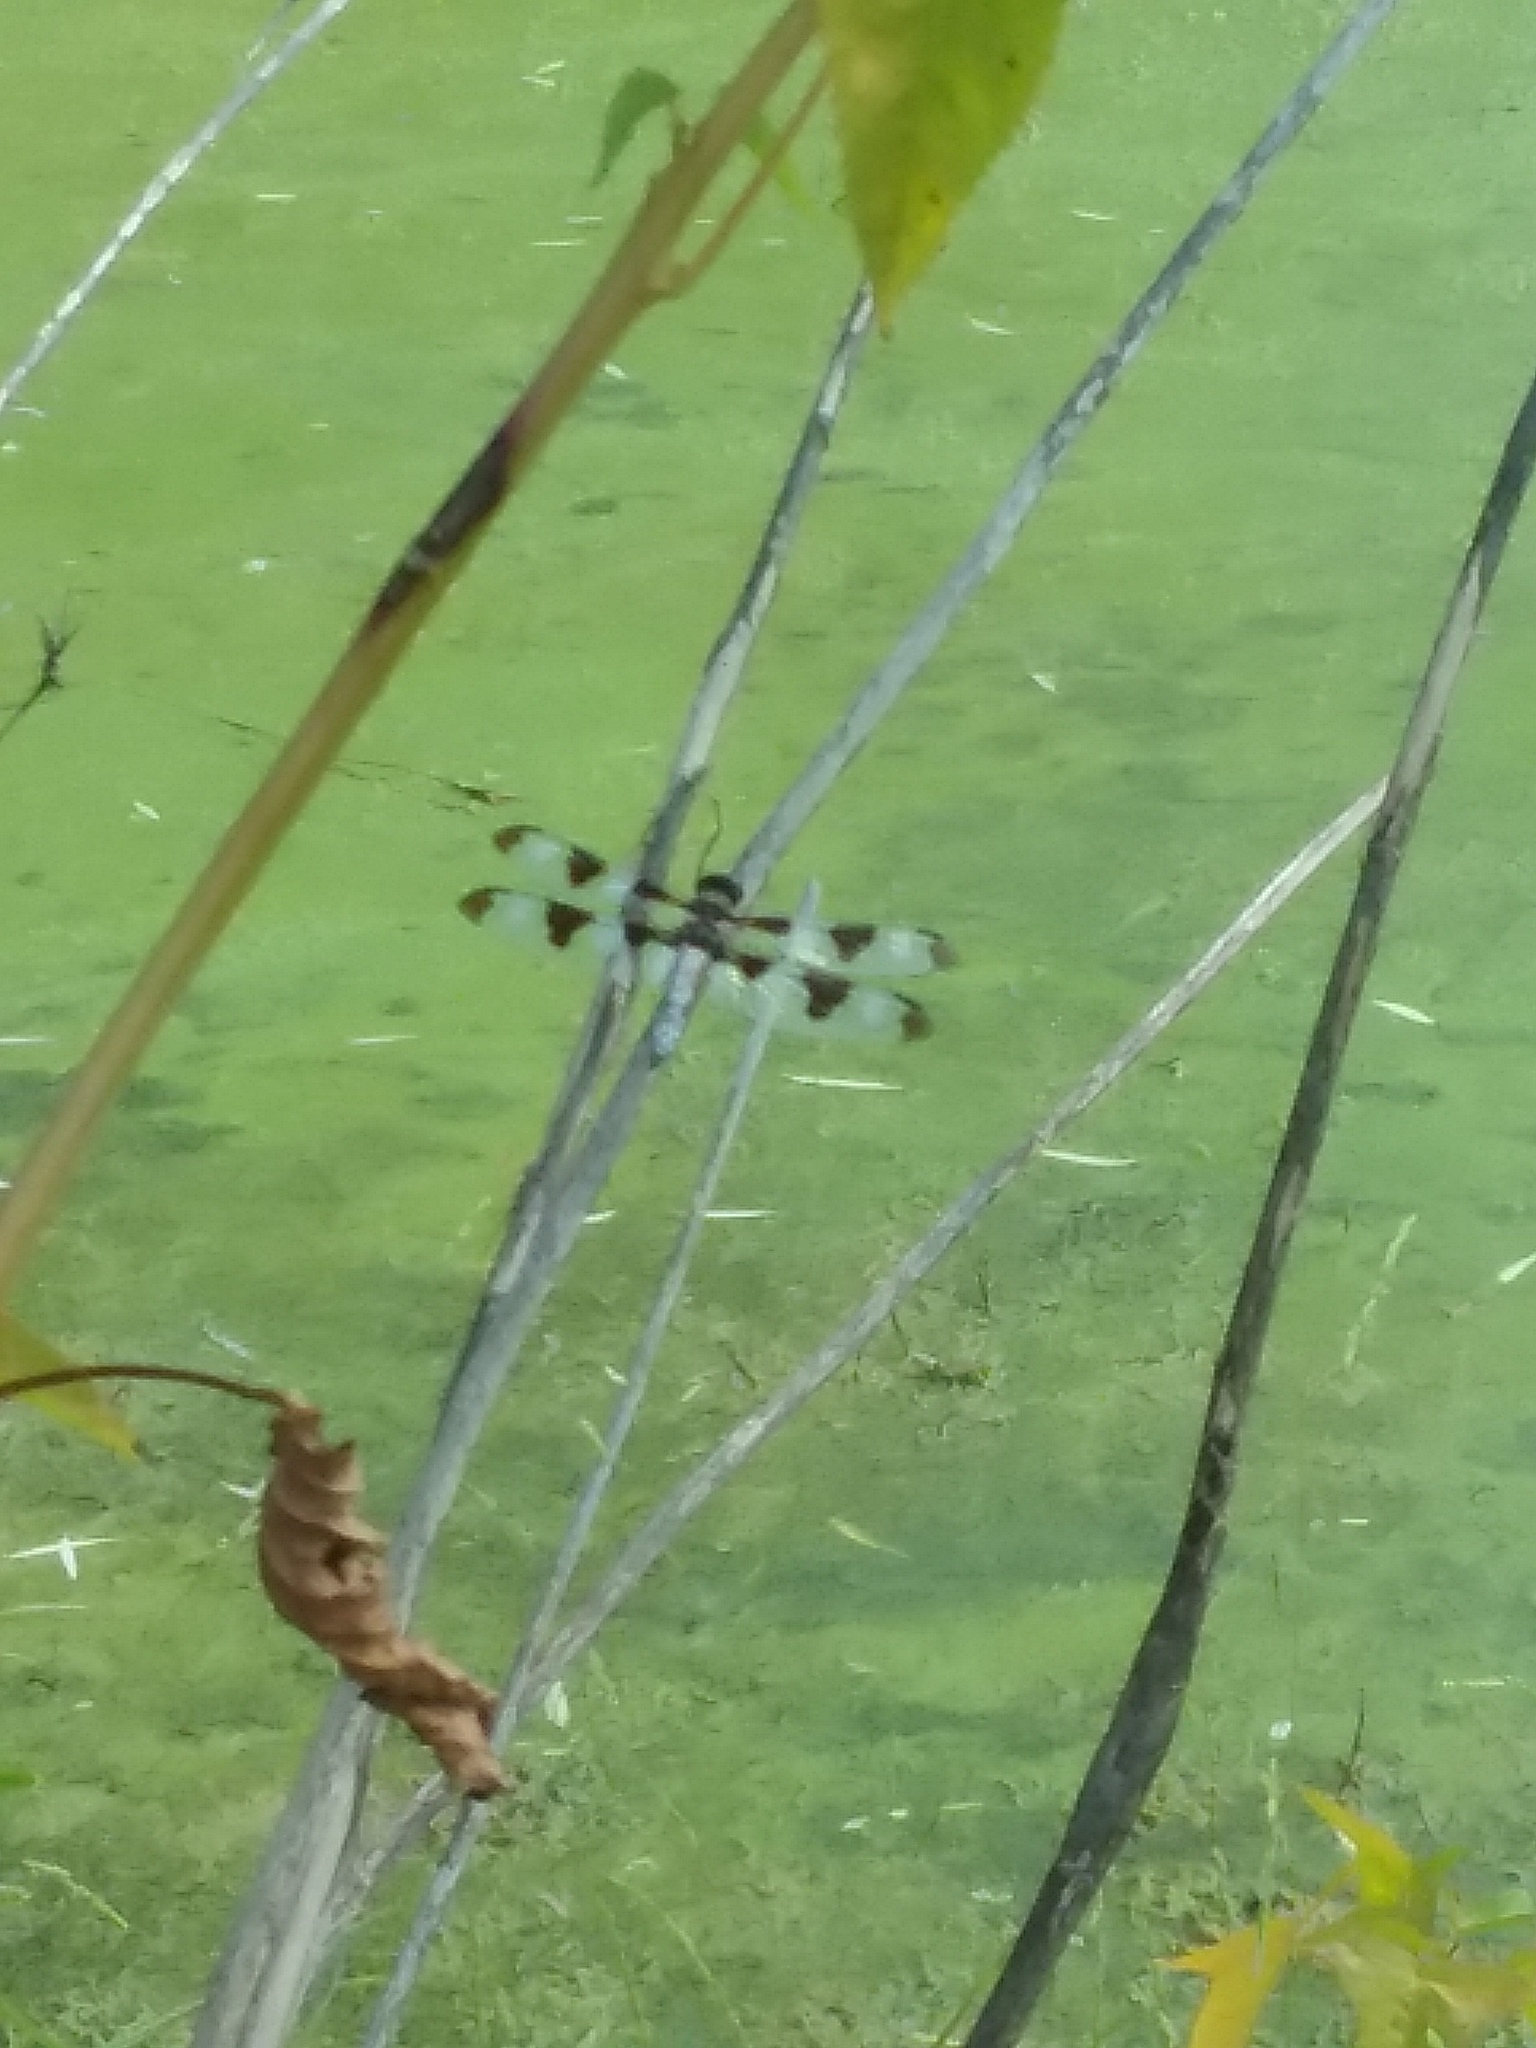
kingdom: Animalia
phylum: Arthropoda
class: Insecta
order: Odonata
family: Libellulidae
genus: Libellula
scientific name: Libellula pulchella
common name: Twelve-spotted skimmer
